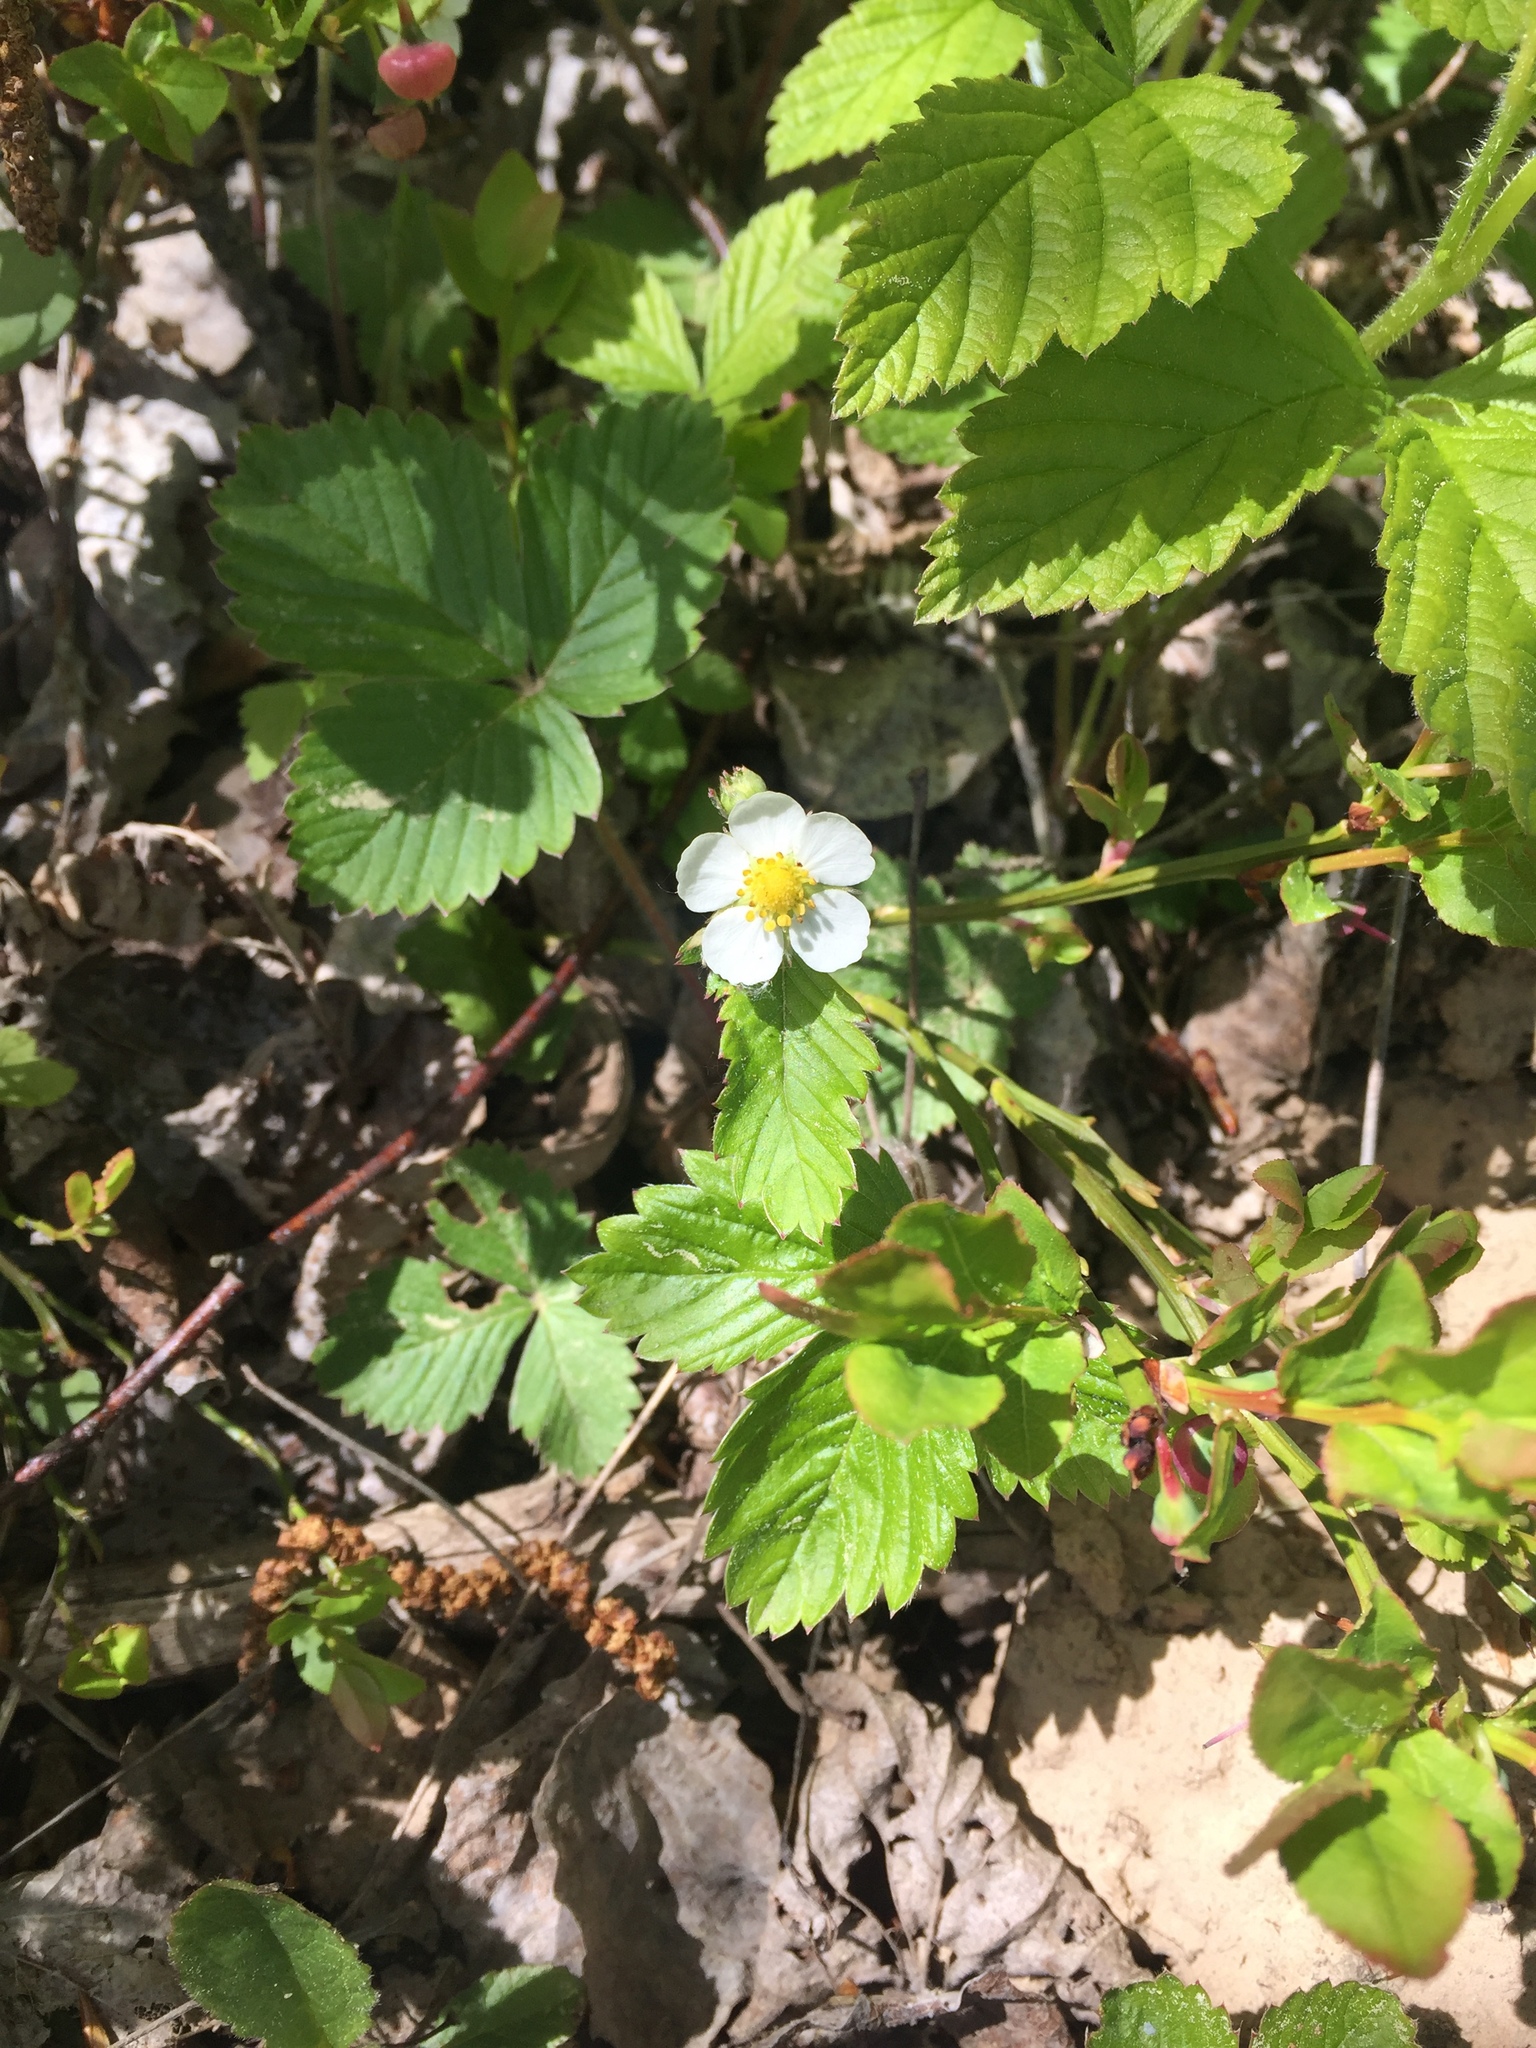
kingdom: Plantae
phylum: Tracheophyta
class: Magnoliopsida
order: Rosales
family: Rosaceae
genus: Fragaria
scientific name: Fragaria vesca
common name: Wild strawberry
